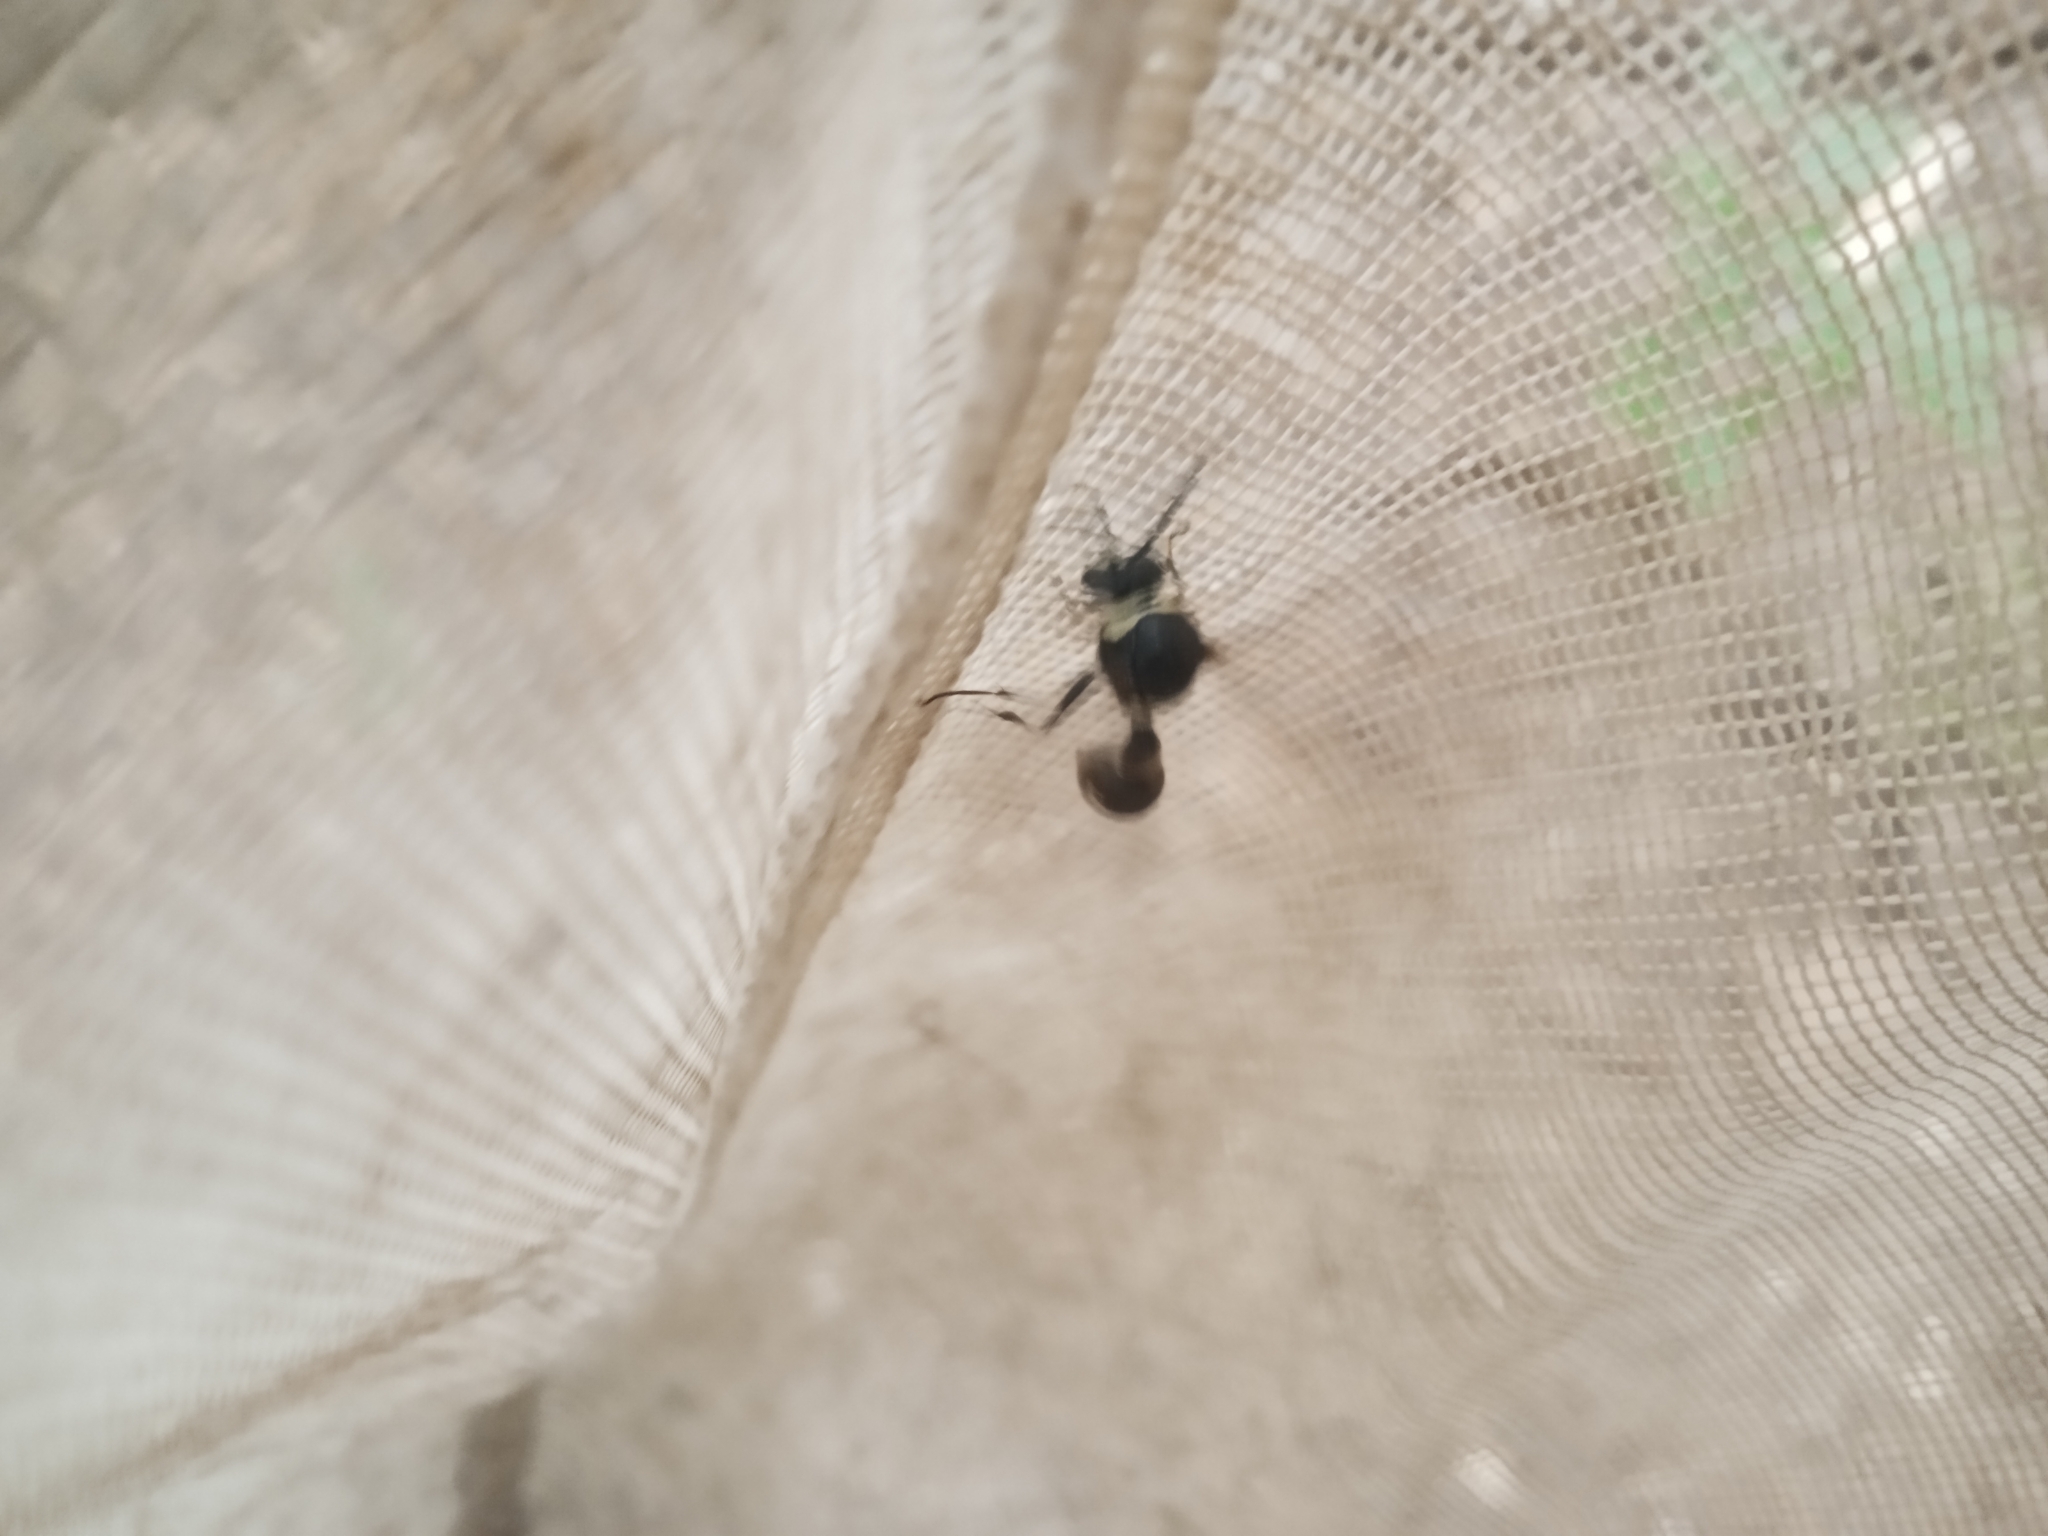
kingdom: Animalia
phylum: Arthropoda
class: Insecta
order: Hymenoptera
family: Vespidae
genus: Eumenes
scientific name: Eumenes fraternus
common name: Fraternal potter wasp
